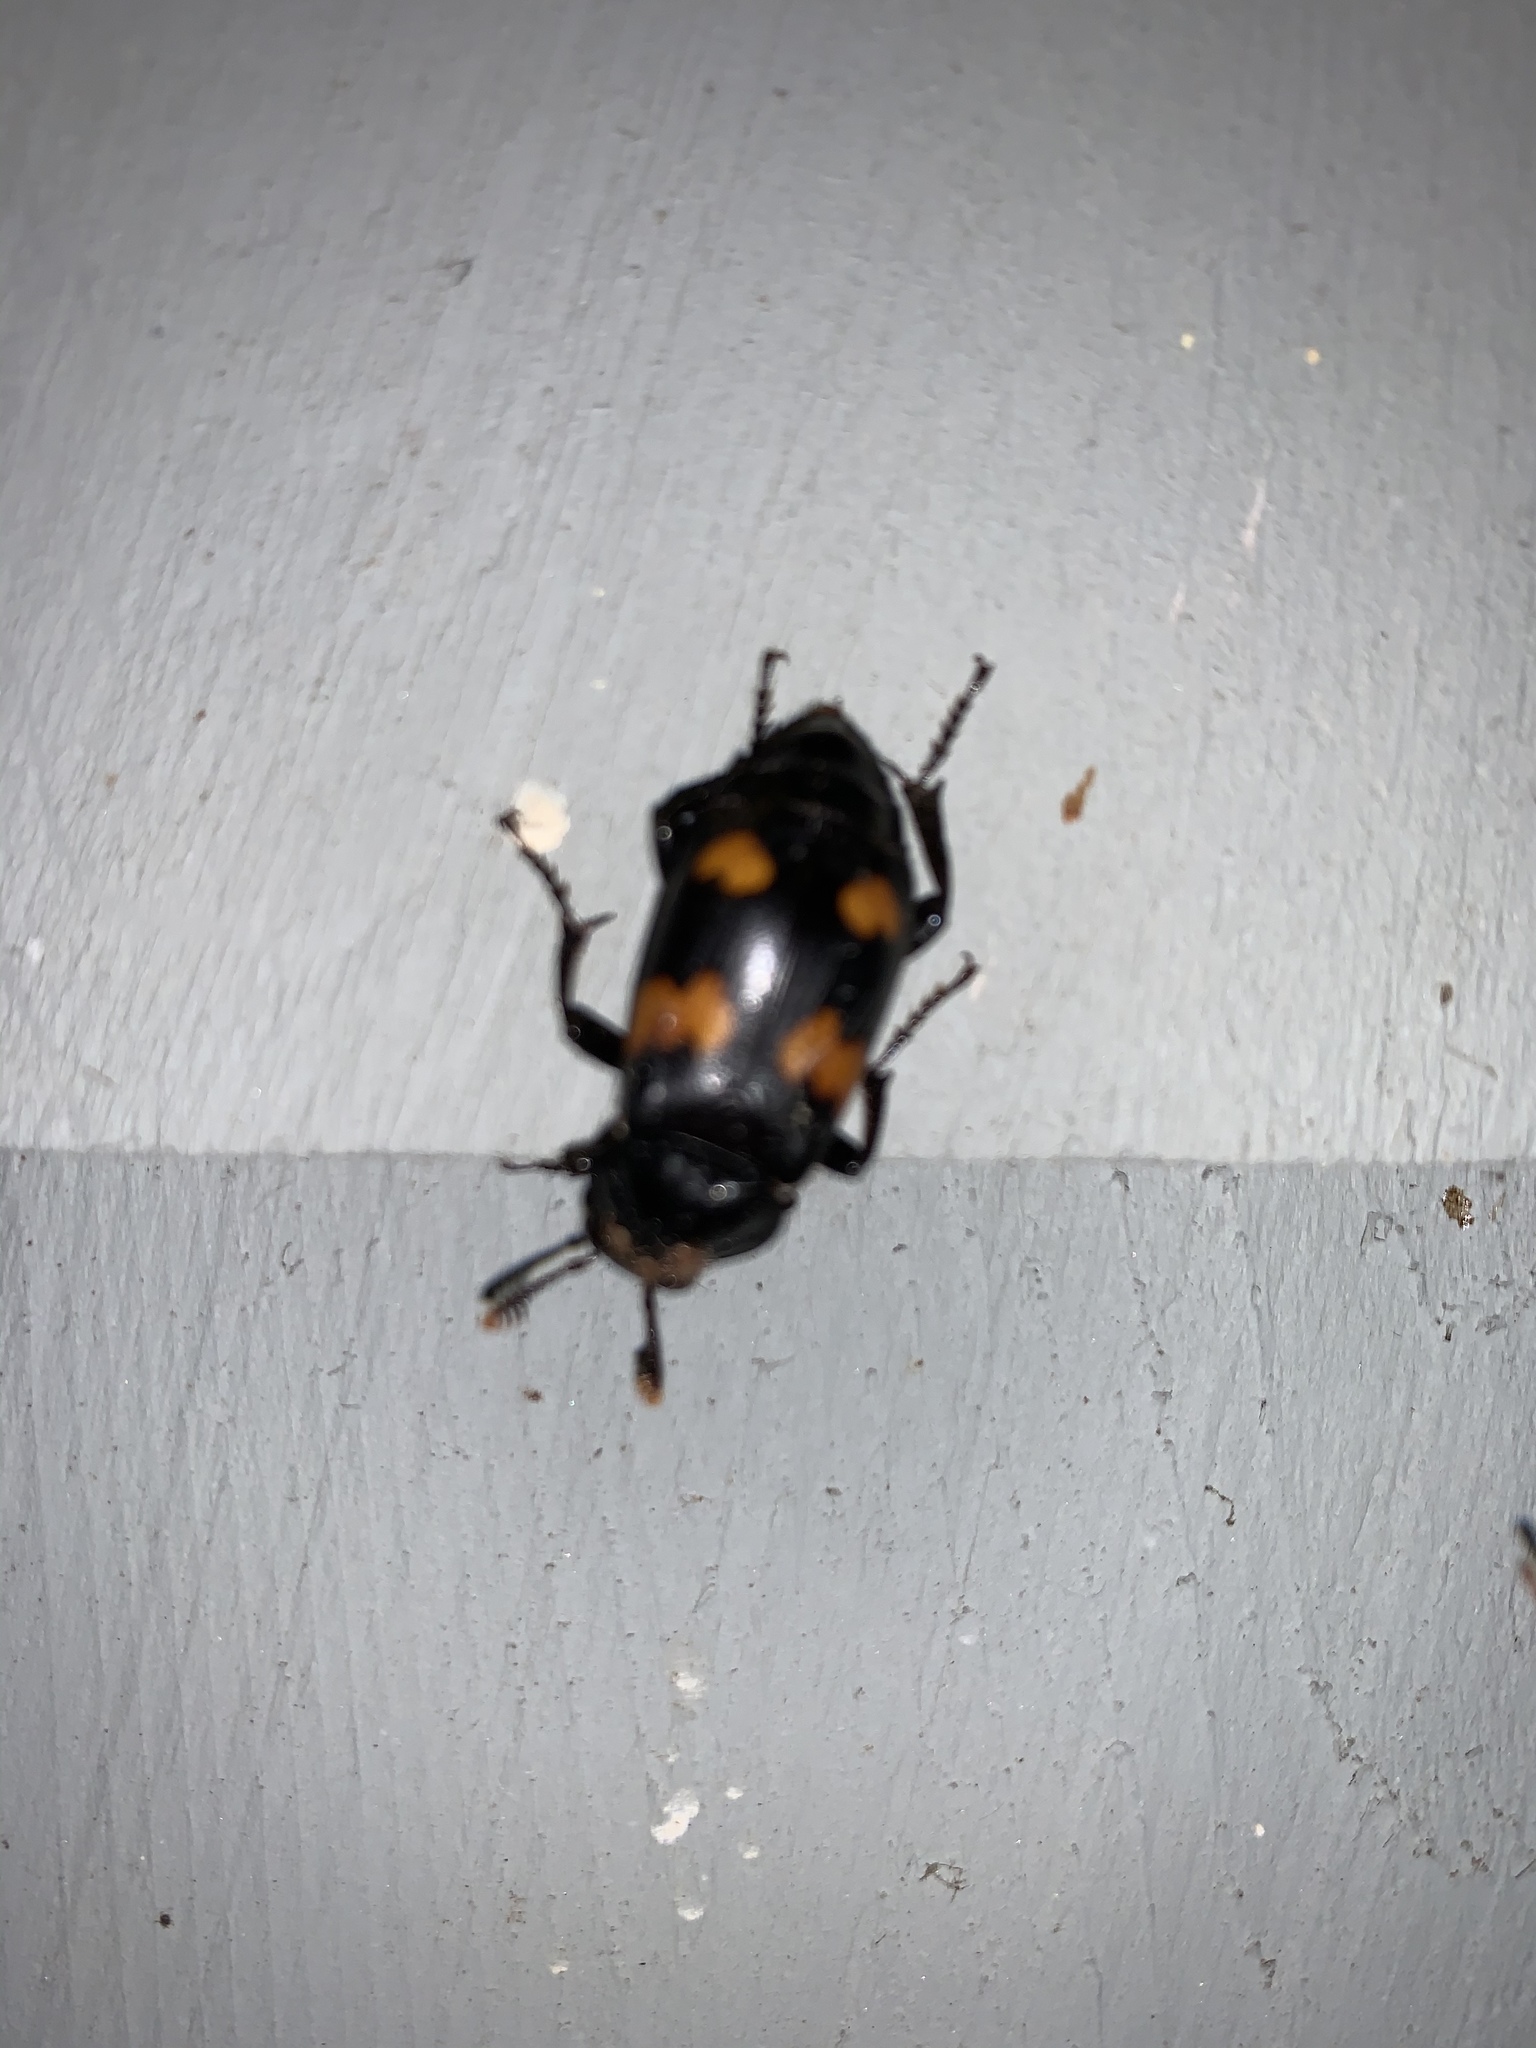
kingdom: Animalia
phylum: Arthropoda
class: Insecta
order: Coleoptera
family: Staphylinidae
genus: Nicrophorus
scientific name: Nicrophorus orbicollis
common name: Roundneck sexton beetle
